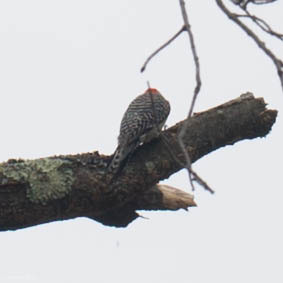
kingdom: Animalia
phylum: Chordata
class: Aves
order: Piciformes
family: Picidae
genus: Melanerpes
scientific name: Melanerpes carolinus
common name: Red-bellied woodpecker
